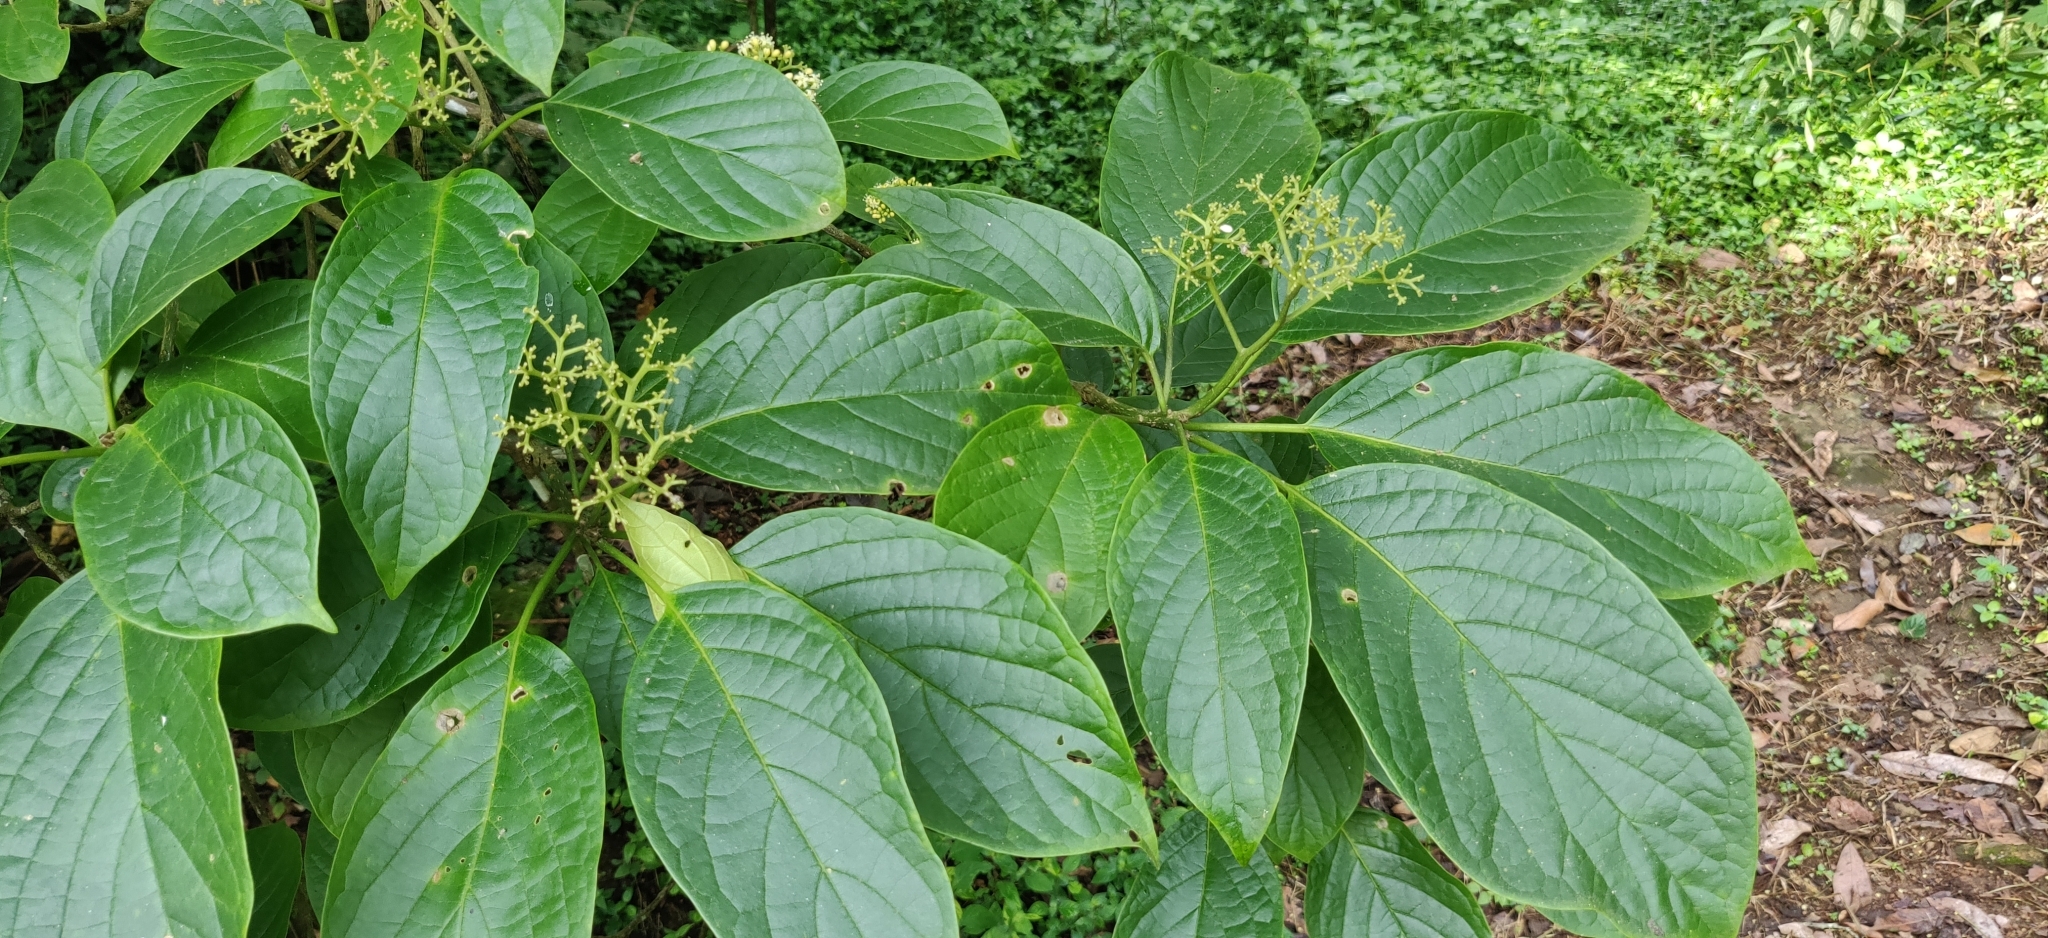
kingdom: Plantae
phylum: Tracheophyta
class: Magnoliopsida
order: Icacinales
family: Icacinaceae
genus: Nothapodytes
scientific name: Nothapodytes nimmoniana
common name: Nothapodytes
